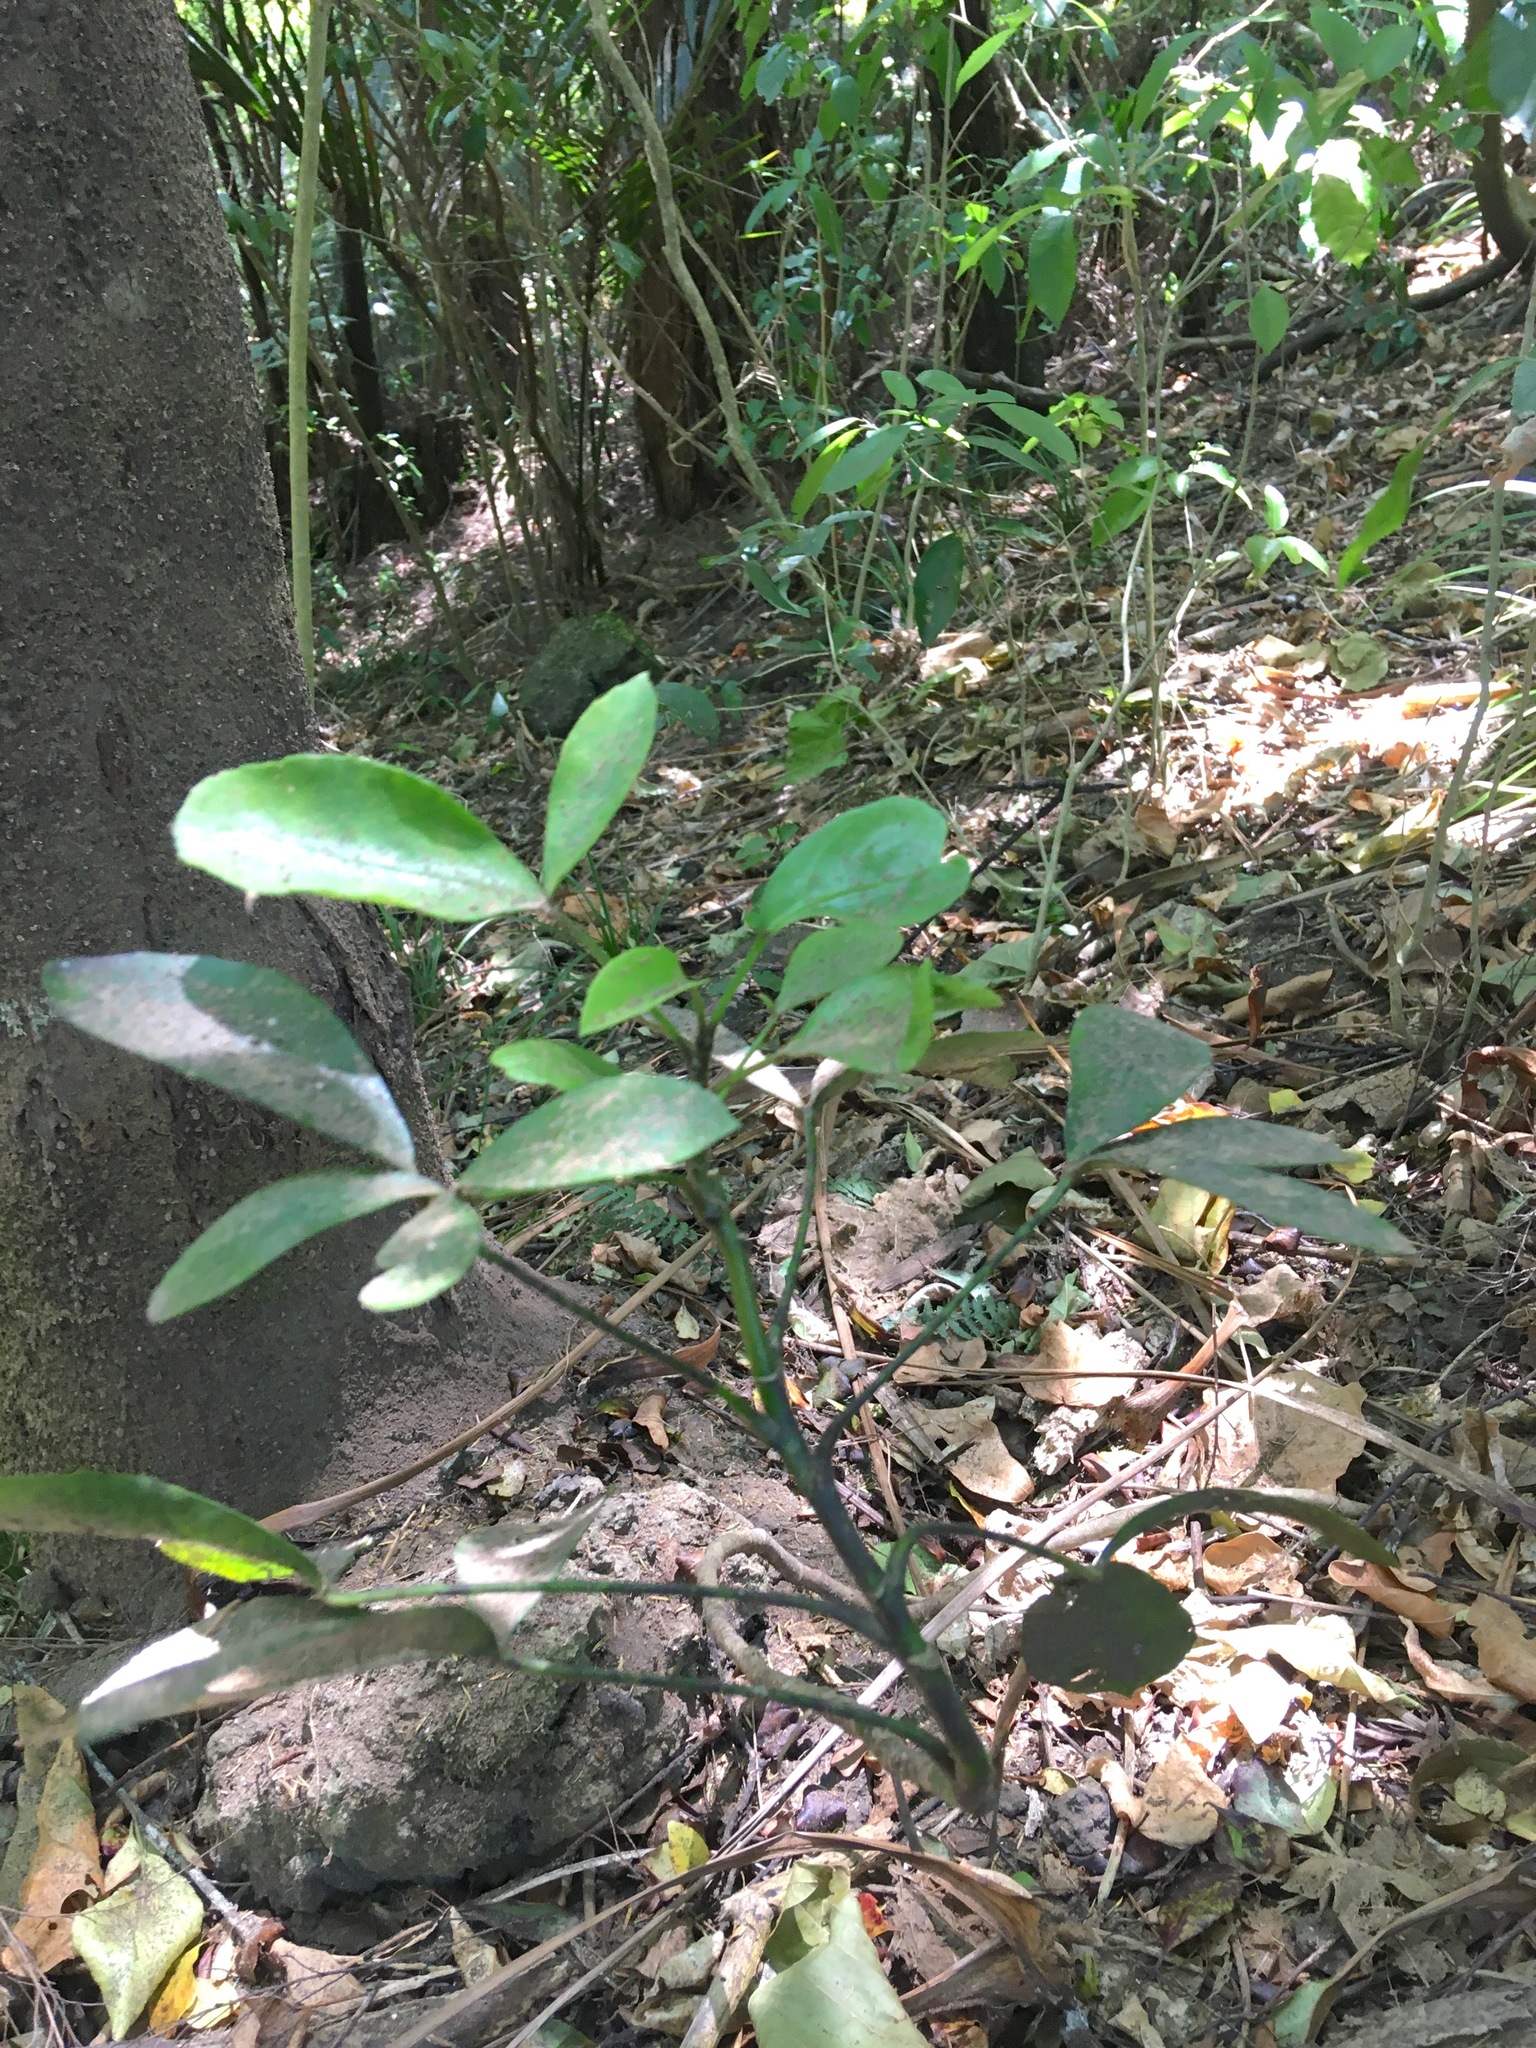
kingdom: Plantae
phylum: Tracheophyta
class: Magnoliopsida
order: Apiales
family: Araliaceae
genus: Pseudopanax
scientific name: Pseudopanax lessonii
